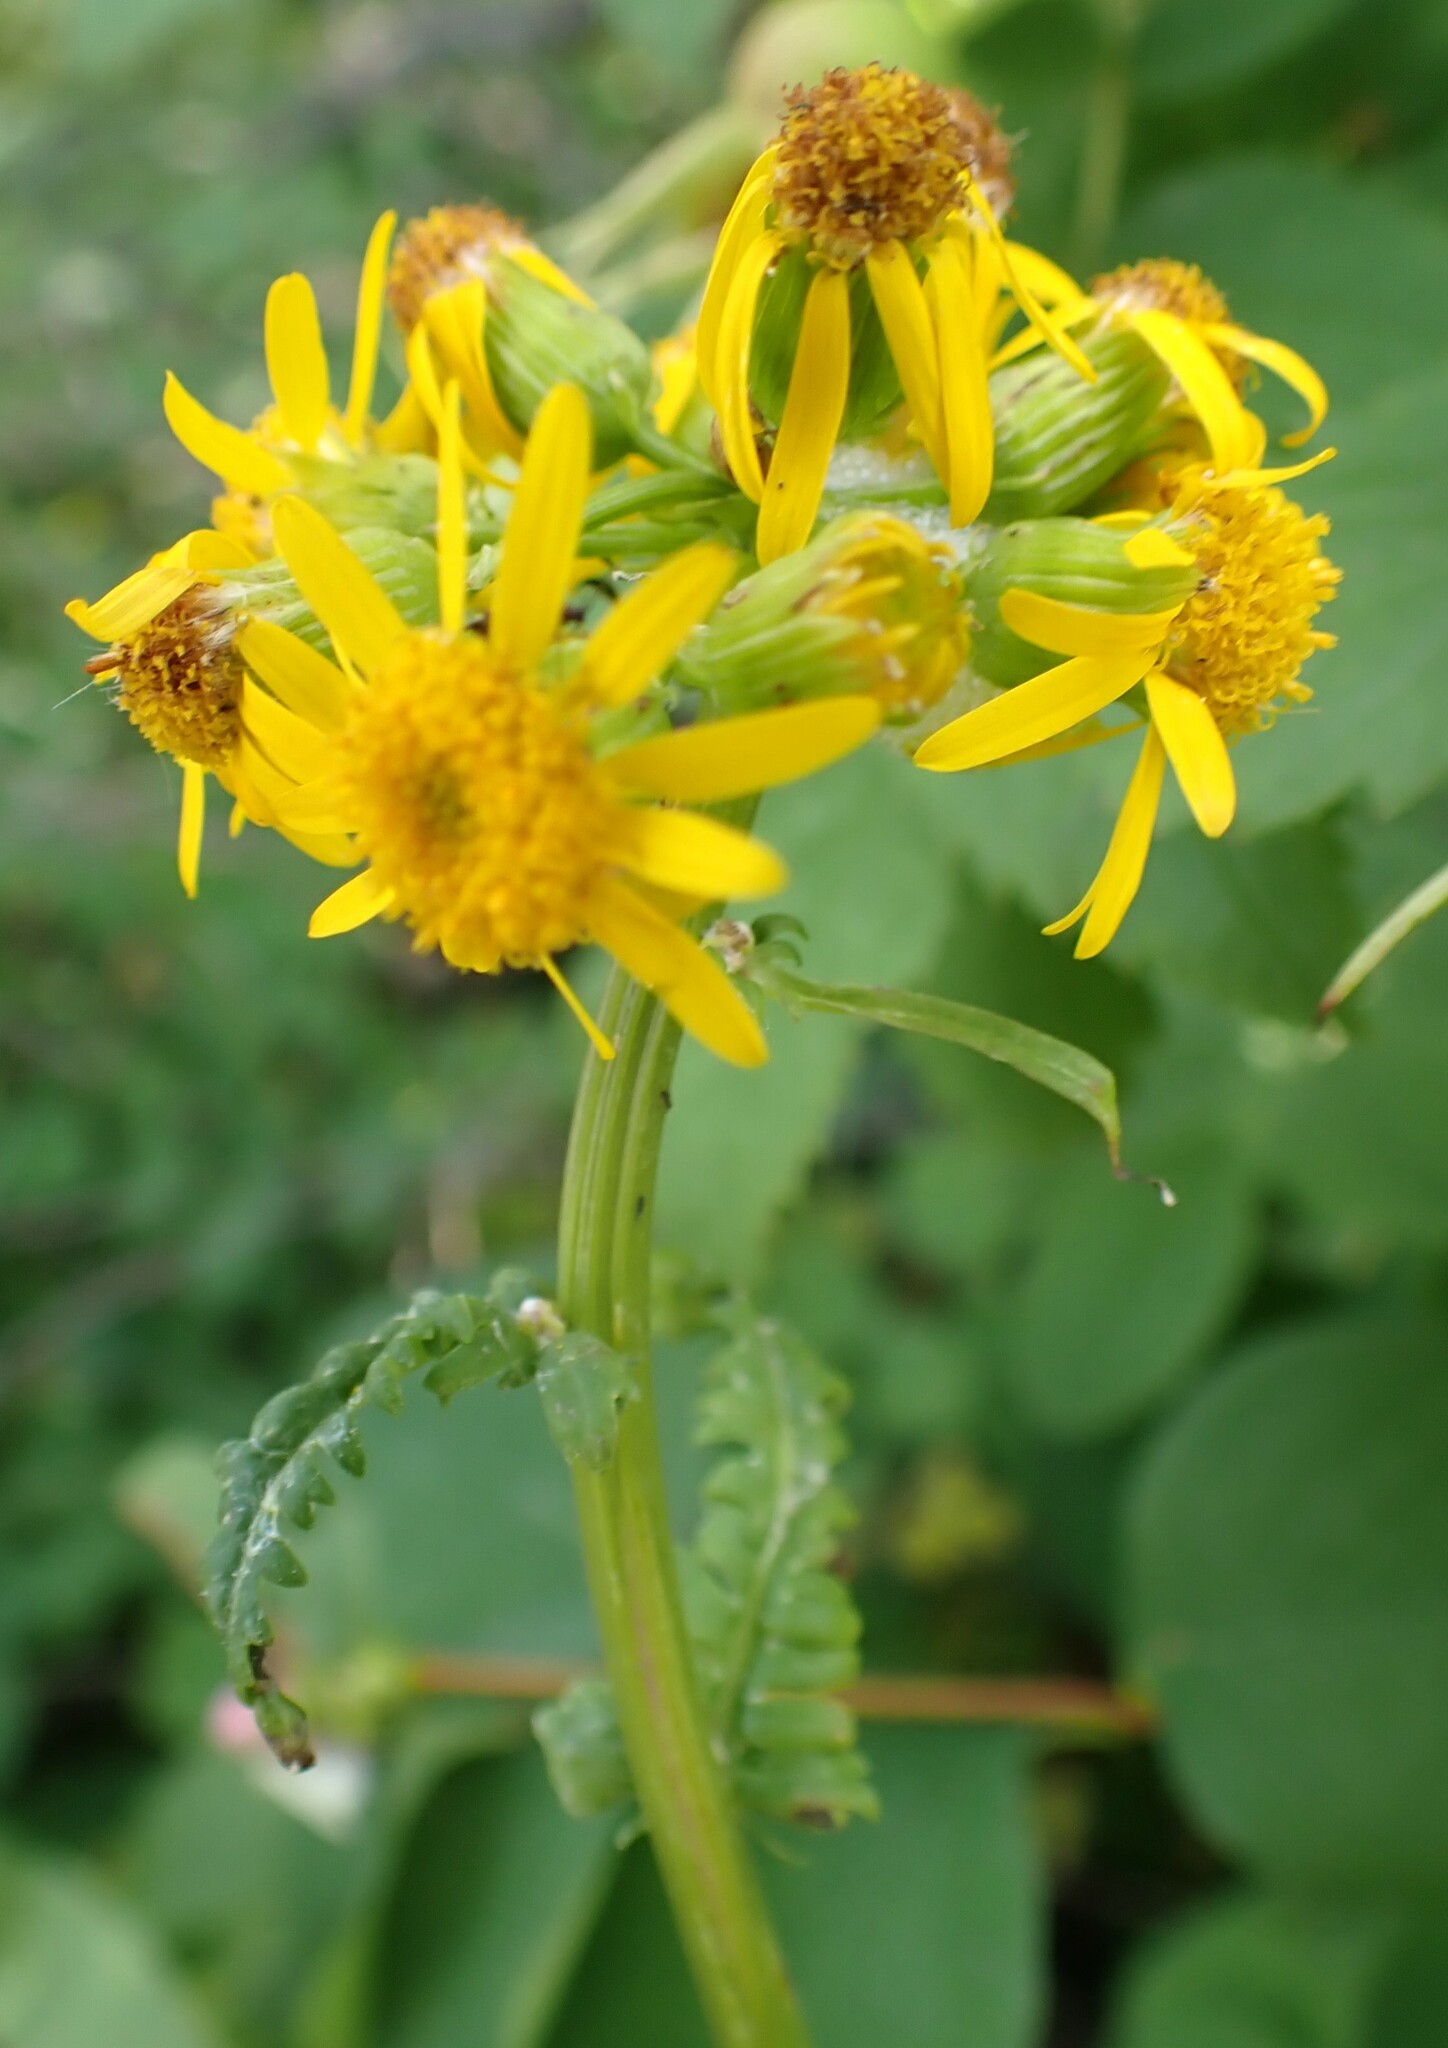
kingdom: Plantae
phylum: Tracheophyta
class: Magnoliopsida
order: Asterales
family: Asteraceae
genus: Senecio
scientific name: Senecio triangularis
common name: Arrowleaf butterweed
